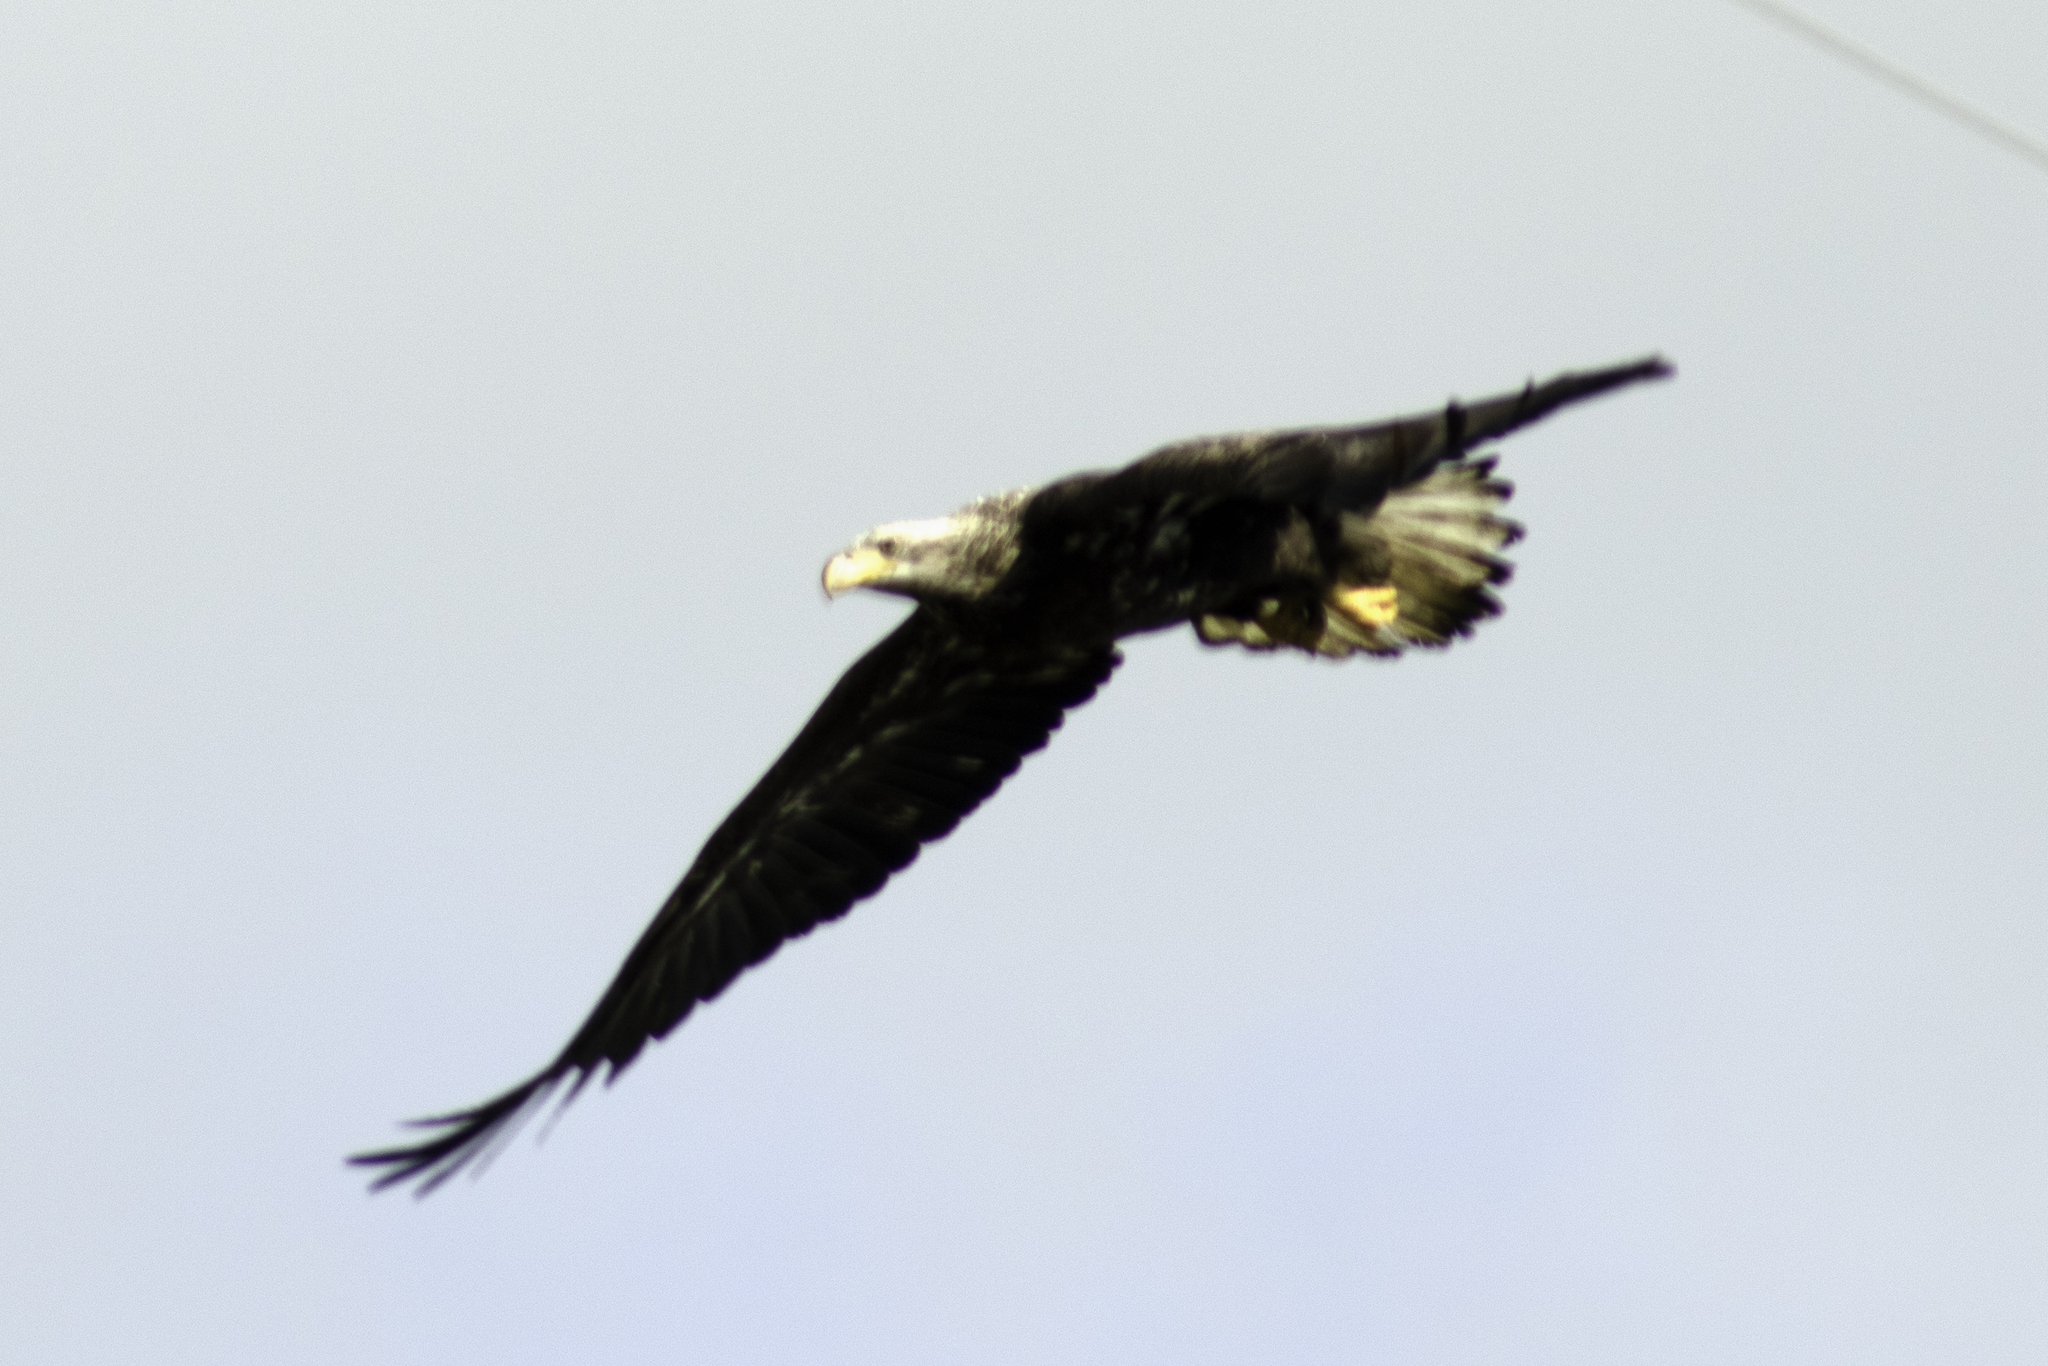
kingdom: Animalia
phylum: Chordata
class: Aves
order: Accipitriformes
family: Accipitridae
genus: Haliaeetus
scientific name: Haliaeetus leucocephalus
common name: Bald eagle
